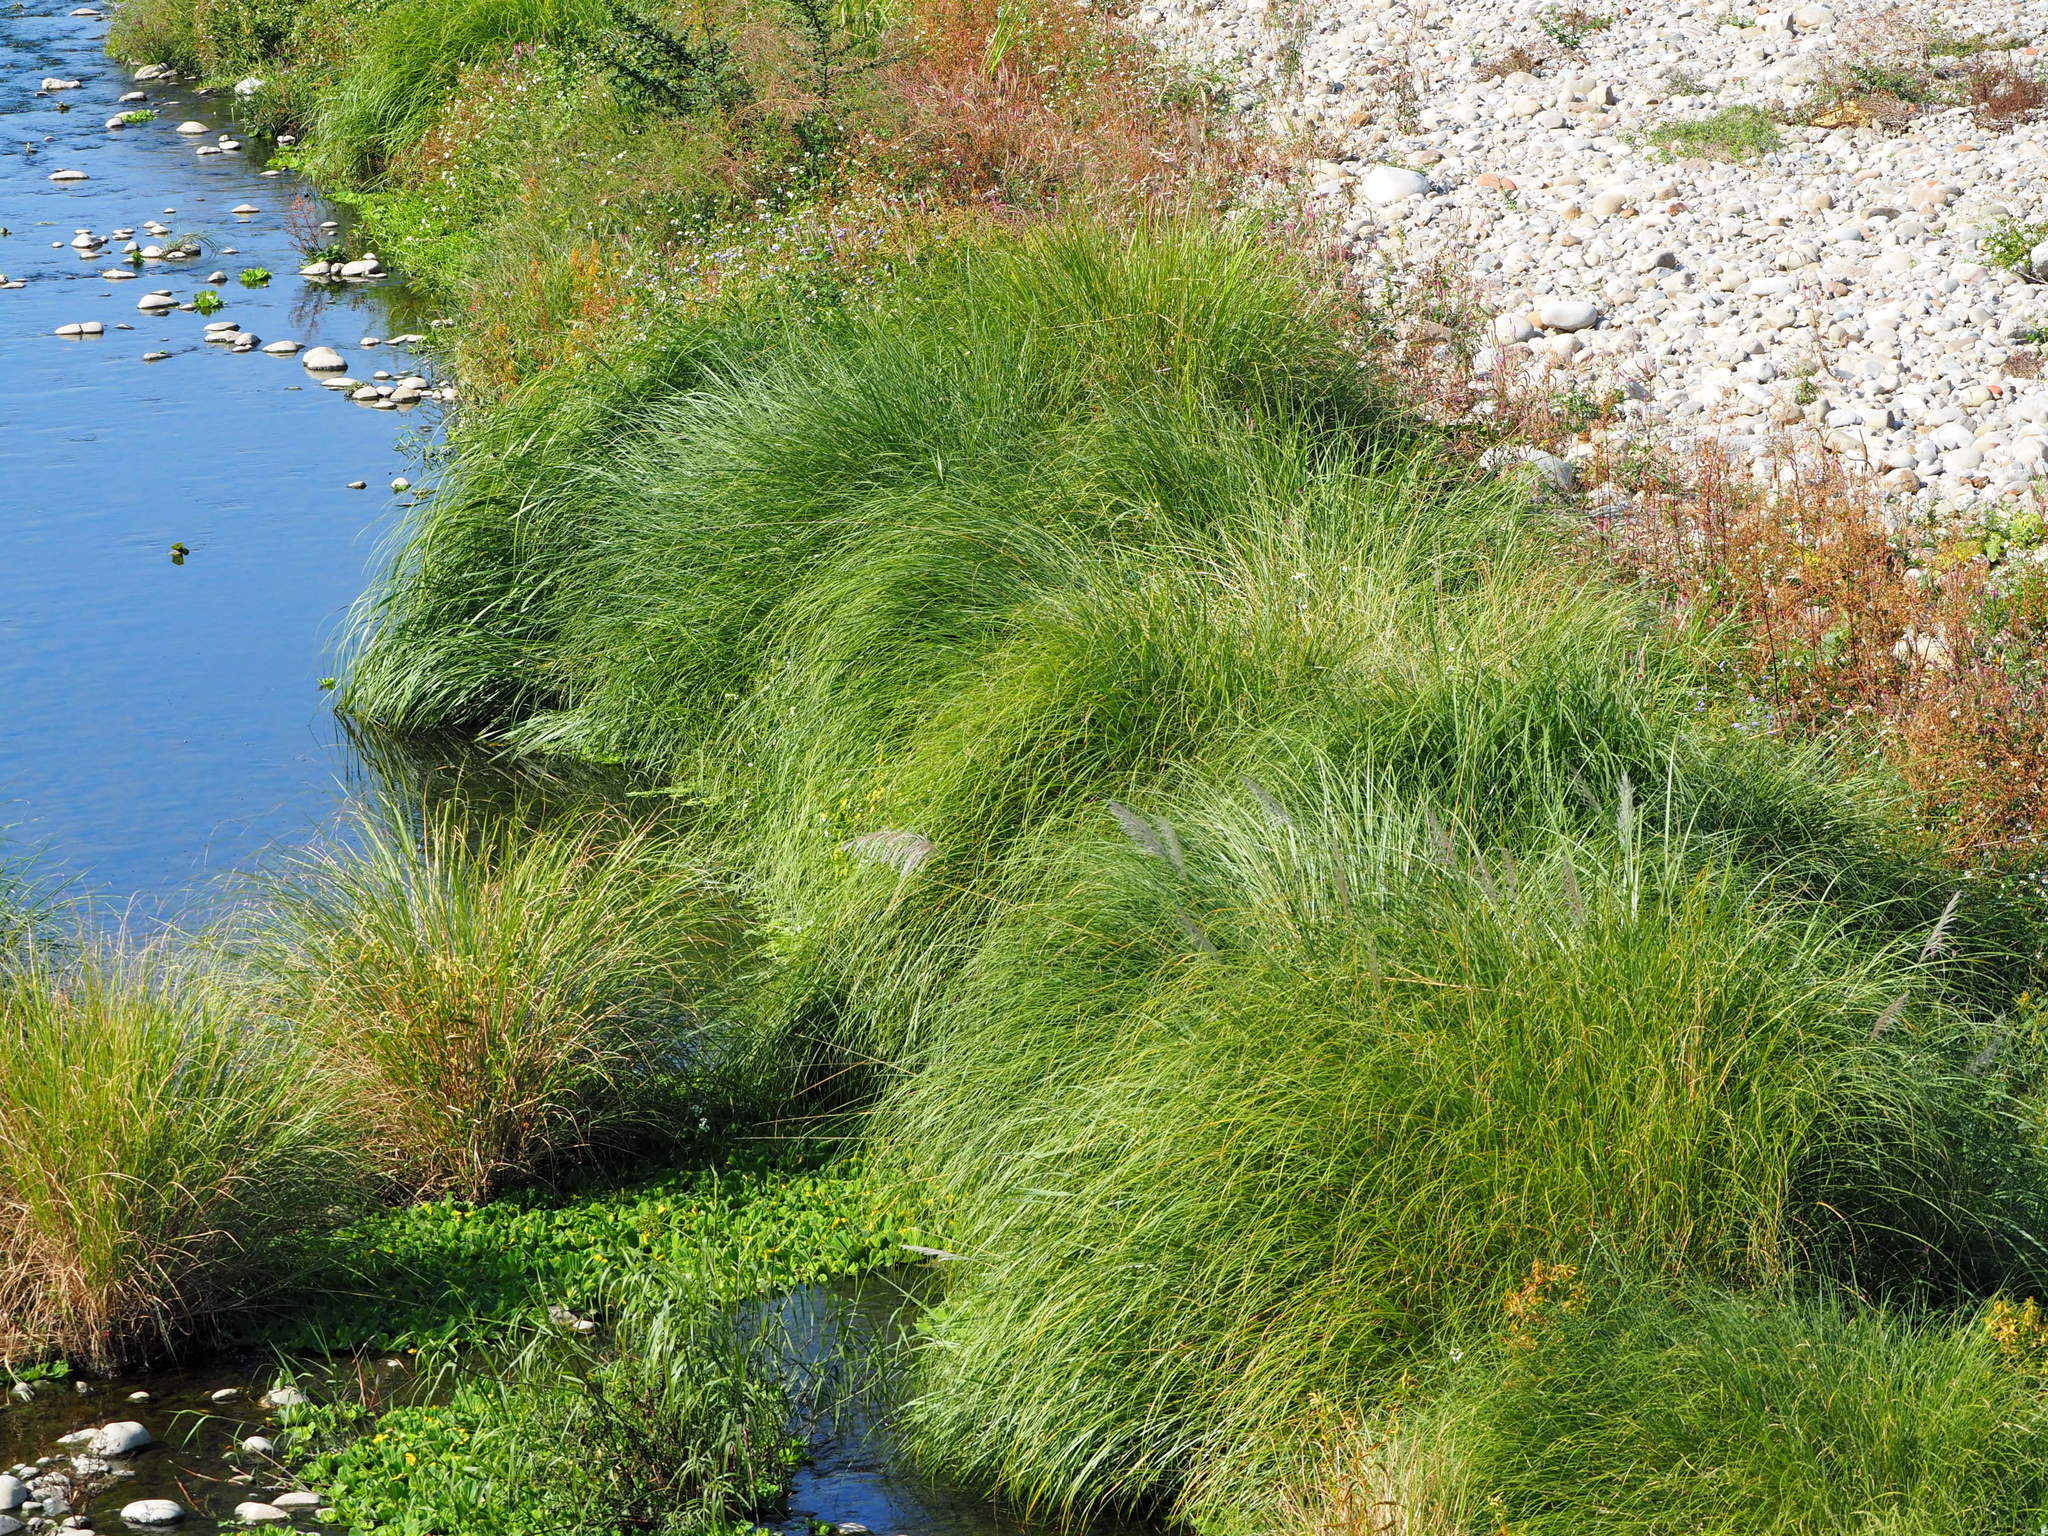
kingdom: Plantae
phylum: Tracheophyta
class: Liliopsida
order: Poales
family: Poaceae
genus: Saccharum
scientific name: Saccharum spontaneum
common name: Wild sugarcane
